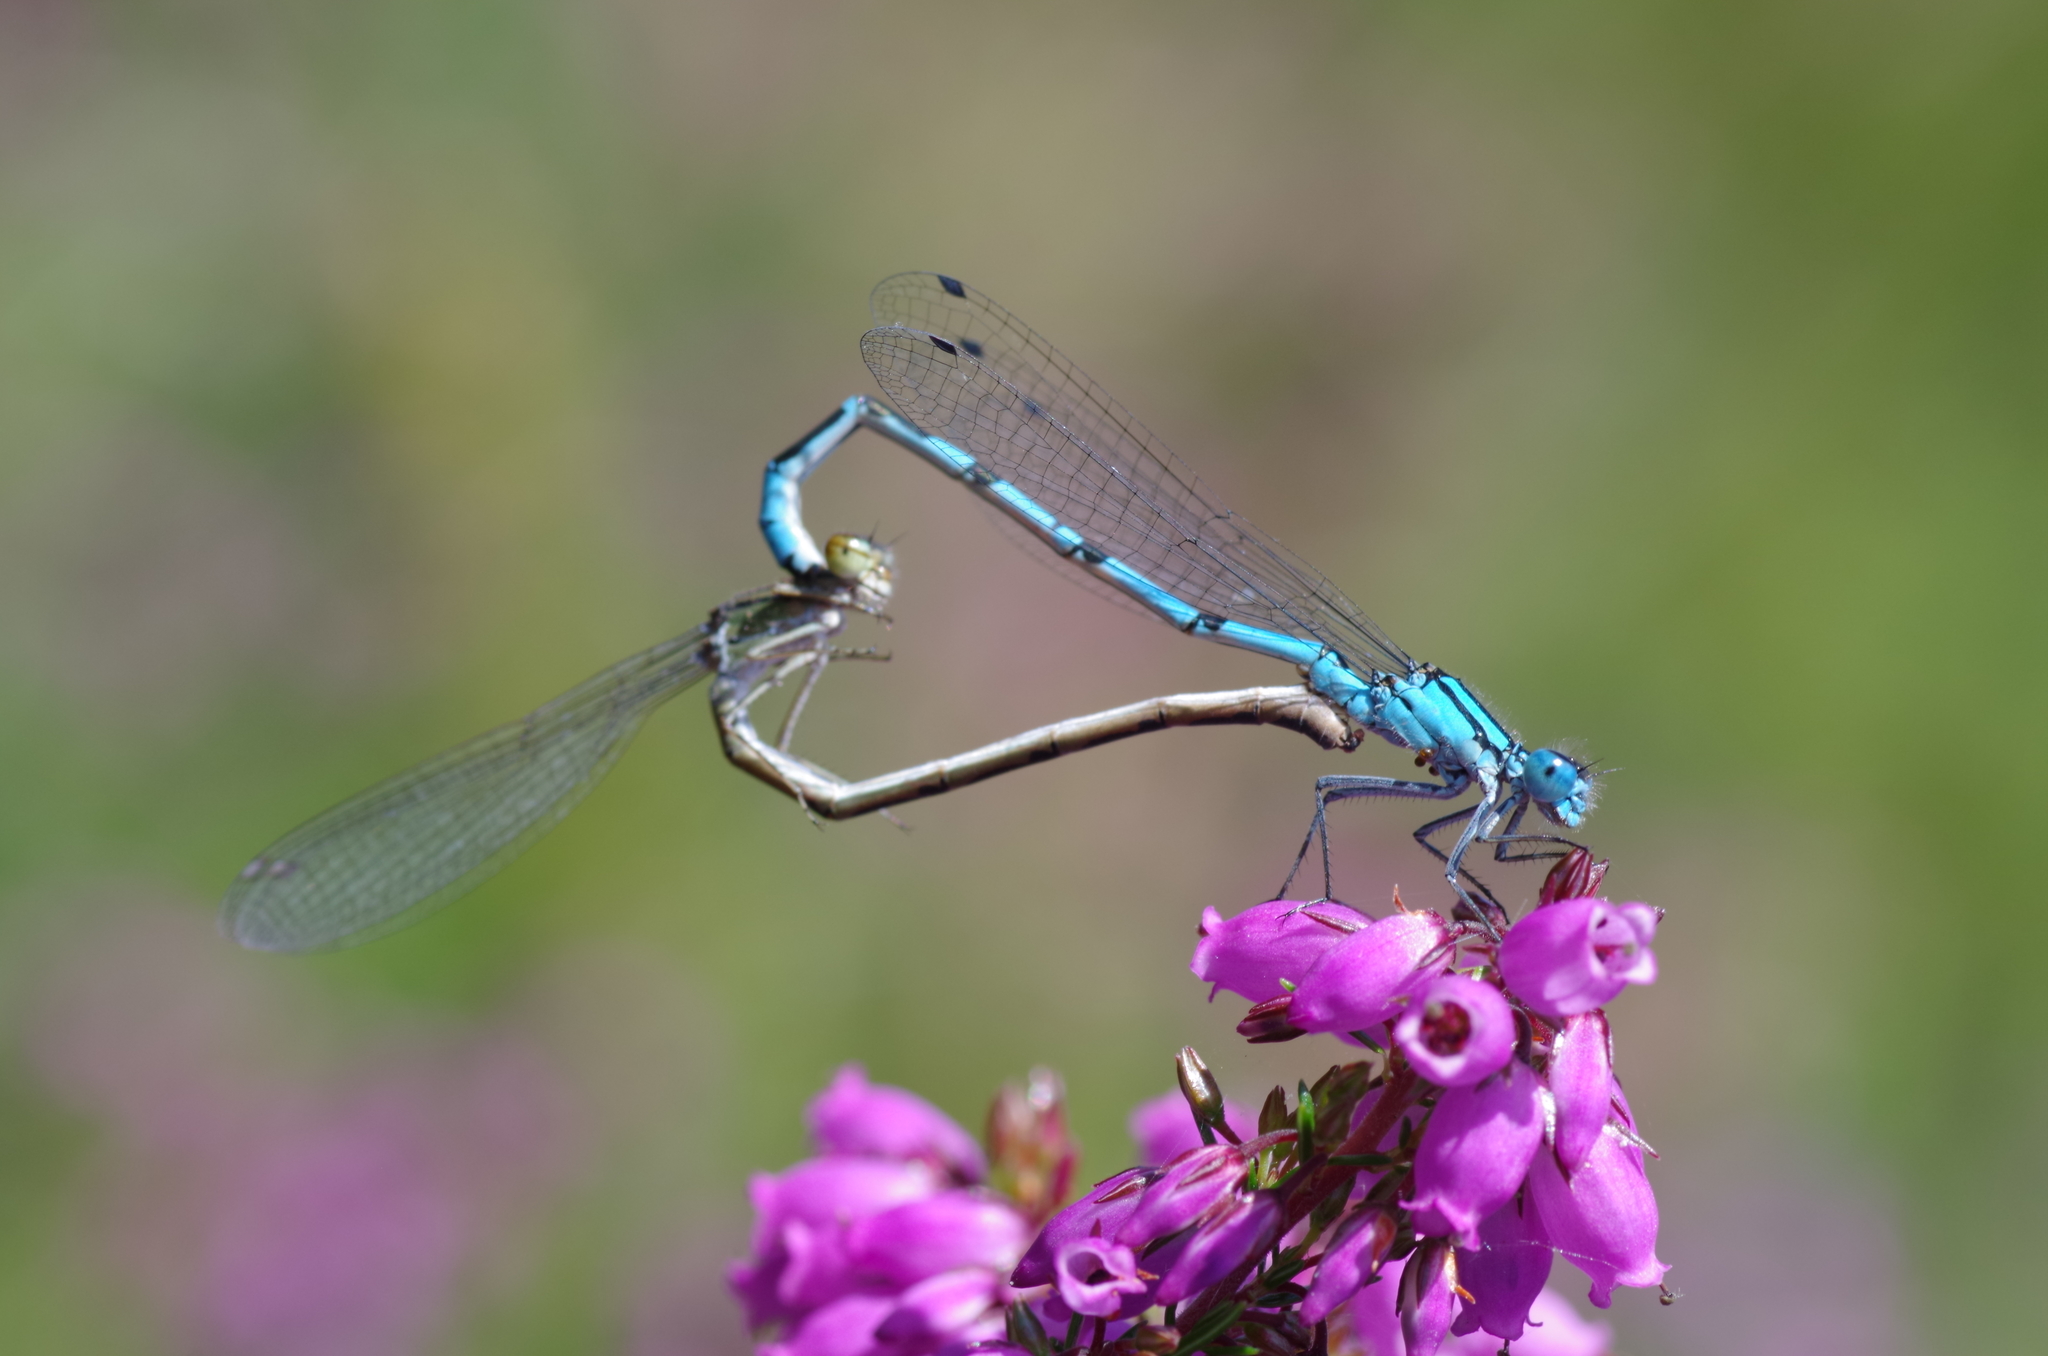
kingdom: Animalia
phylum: Arthropoda
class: Insecta
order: Odonata
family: Coenagrionidae
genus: Enallagma
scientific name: Enallagma cyathigerum
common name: Common blue damselfly
